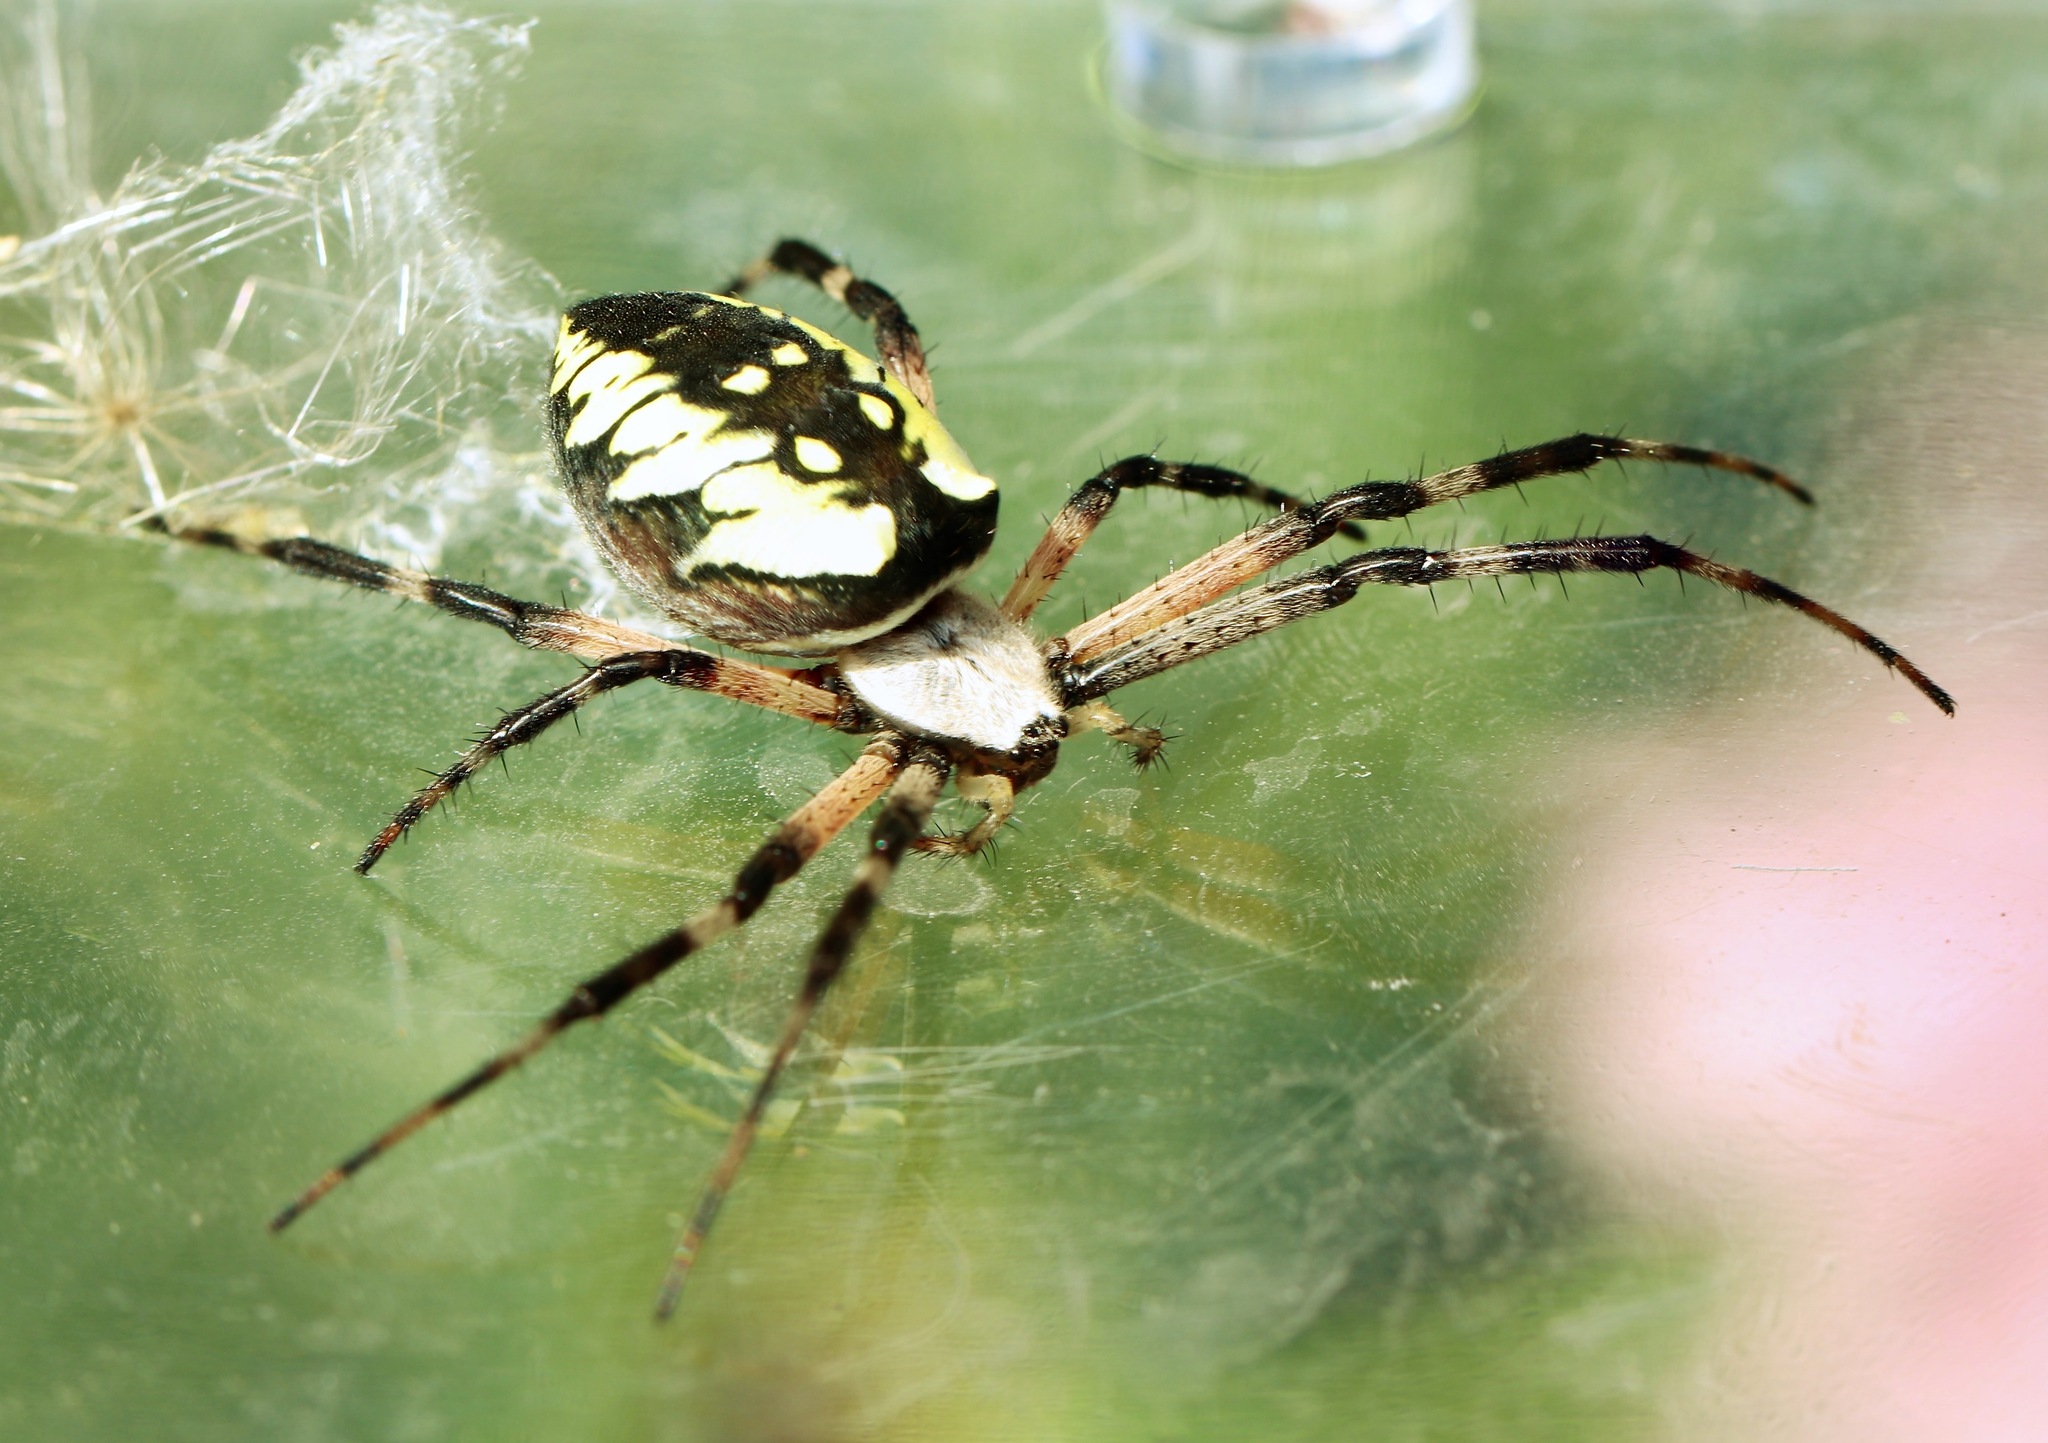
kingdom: Animalia
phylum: Arthropoda
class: Arachnida
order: Araneae
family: Araneidae
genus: Argiope
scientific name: Argiope aurantia
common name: Orb weavers
